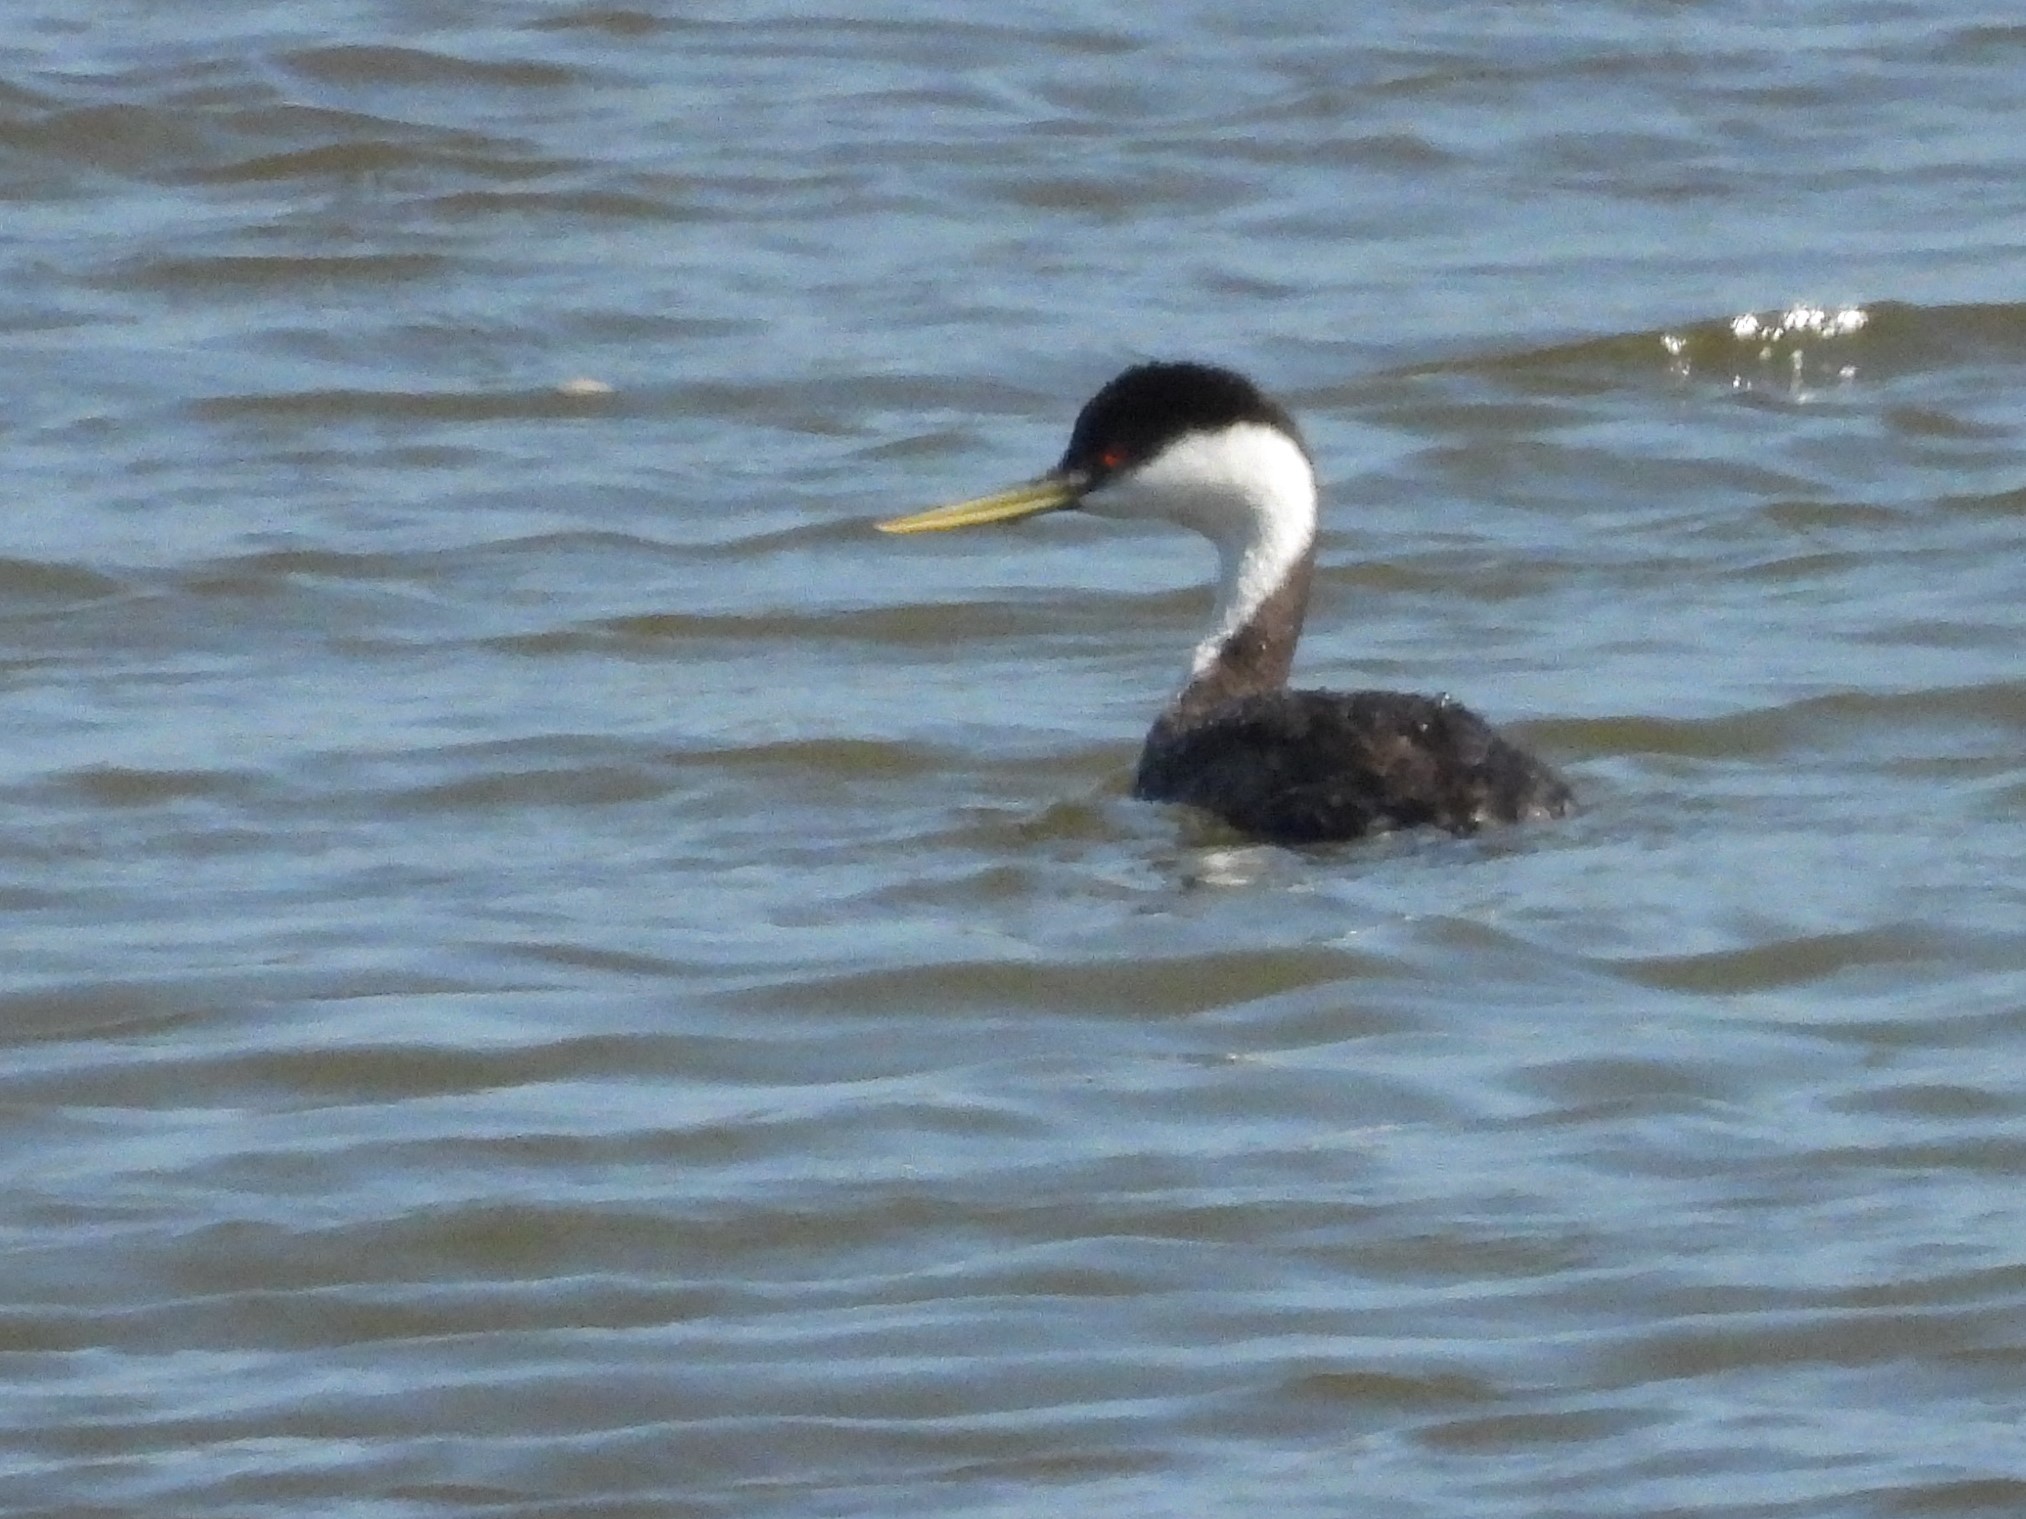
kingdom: Animalia
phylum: Chordata
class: Aves
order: Podicipediformes
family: Podicipedidae
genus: Aechmophorus
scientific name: Aechmophorus occidentalis
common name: Western grebe
